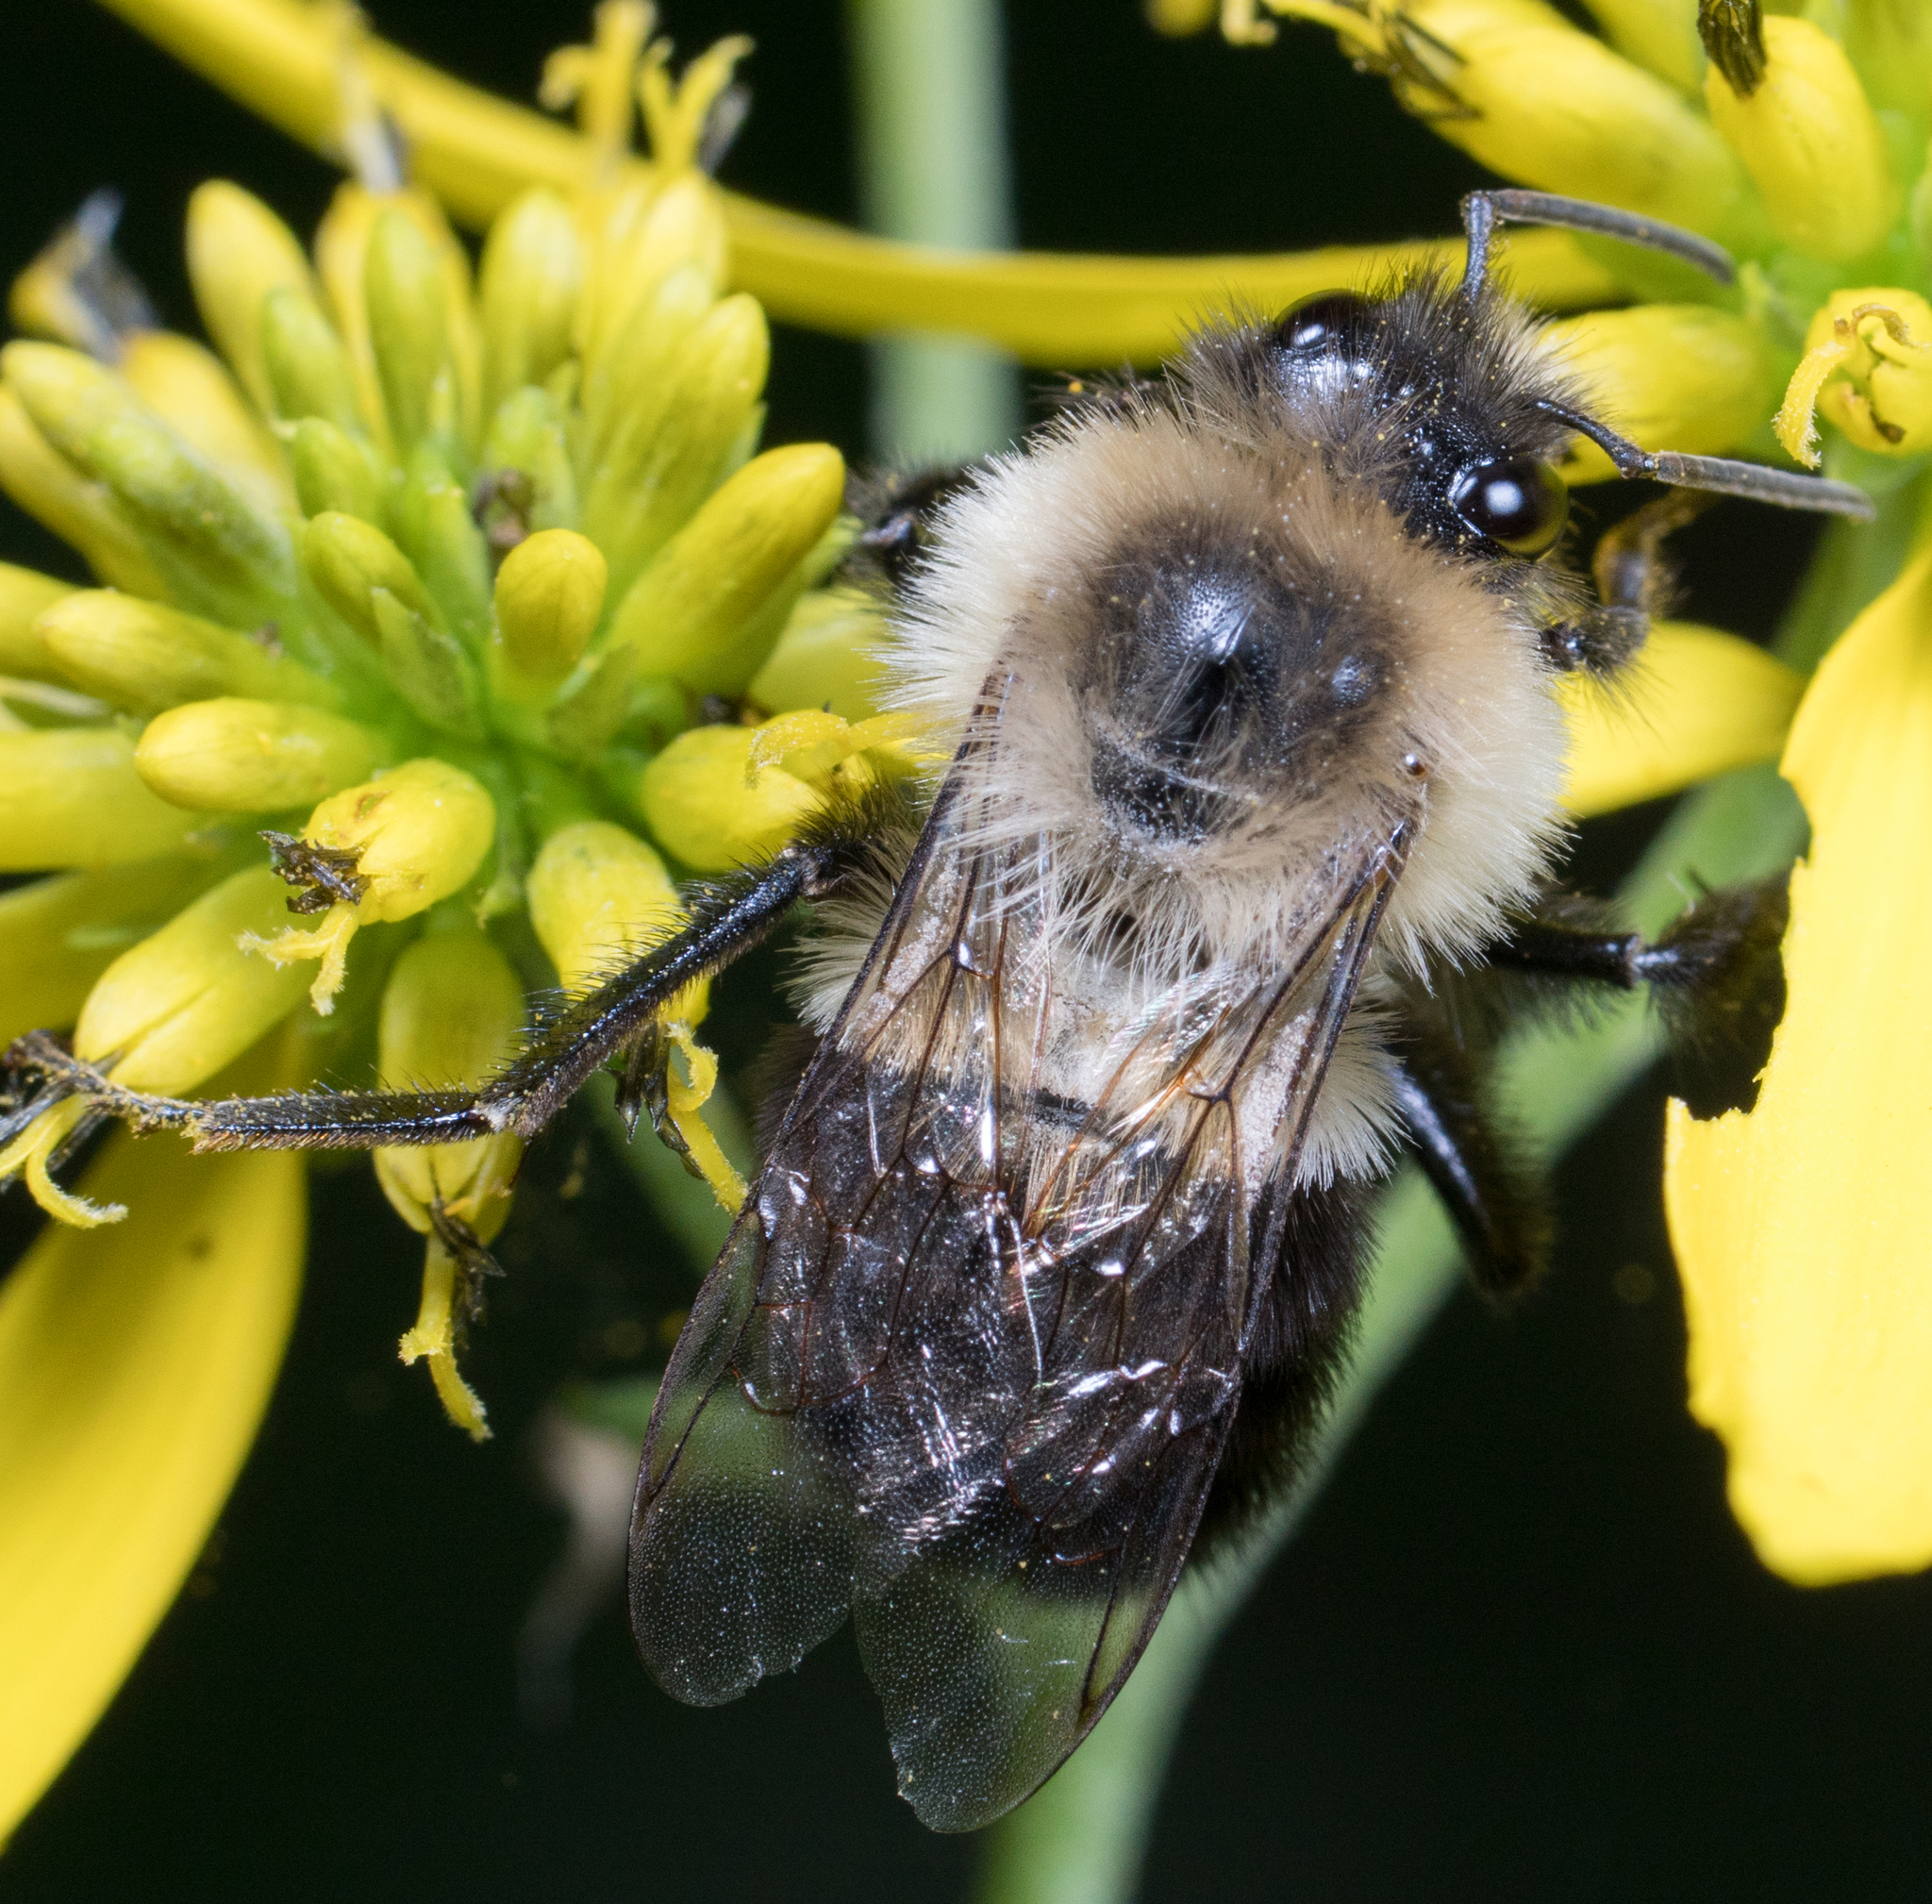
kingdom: Animalia
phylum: Arthropoda
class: Insecta
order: Hymenoptera
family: Apidae
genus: Bombus
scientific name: Bombus impatiens
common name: Common eastern bumble bee
